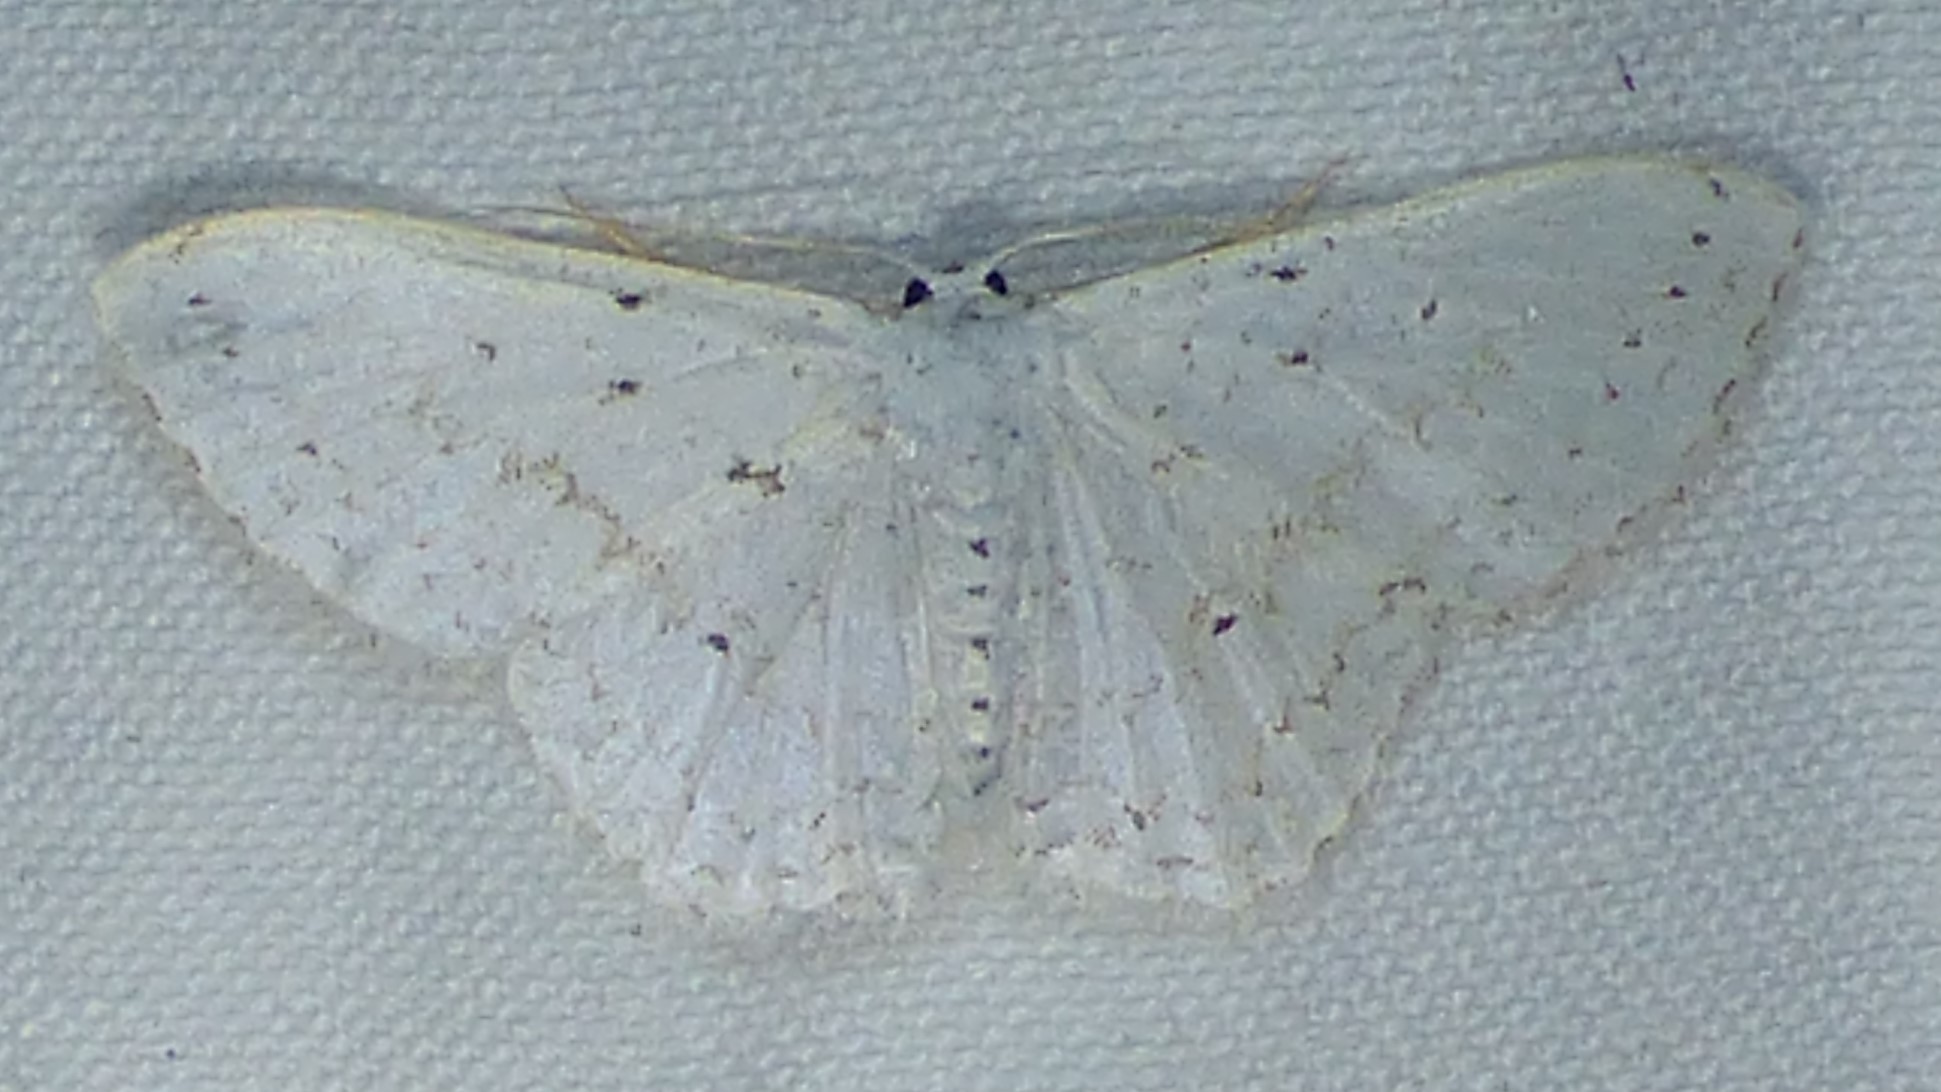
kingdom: Animalia
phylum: Arthropoda
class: Insecta
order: Lepidoptera
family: Geometridae
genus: Idaea
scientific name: Idaea tacturata
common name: Dot-lined wave
